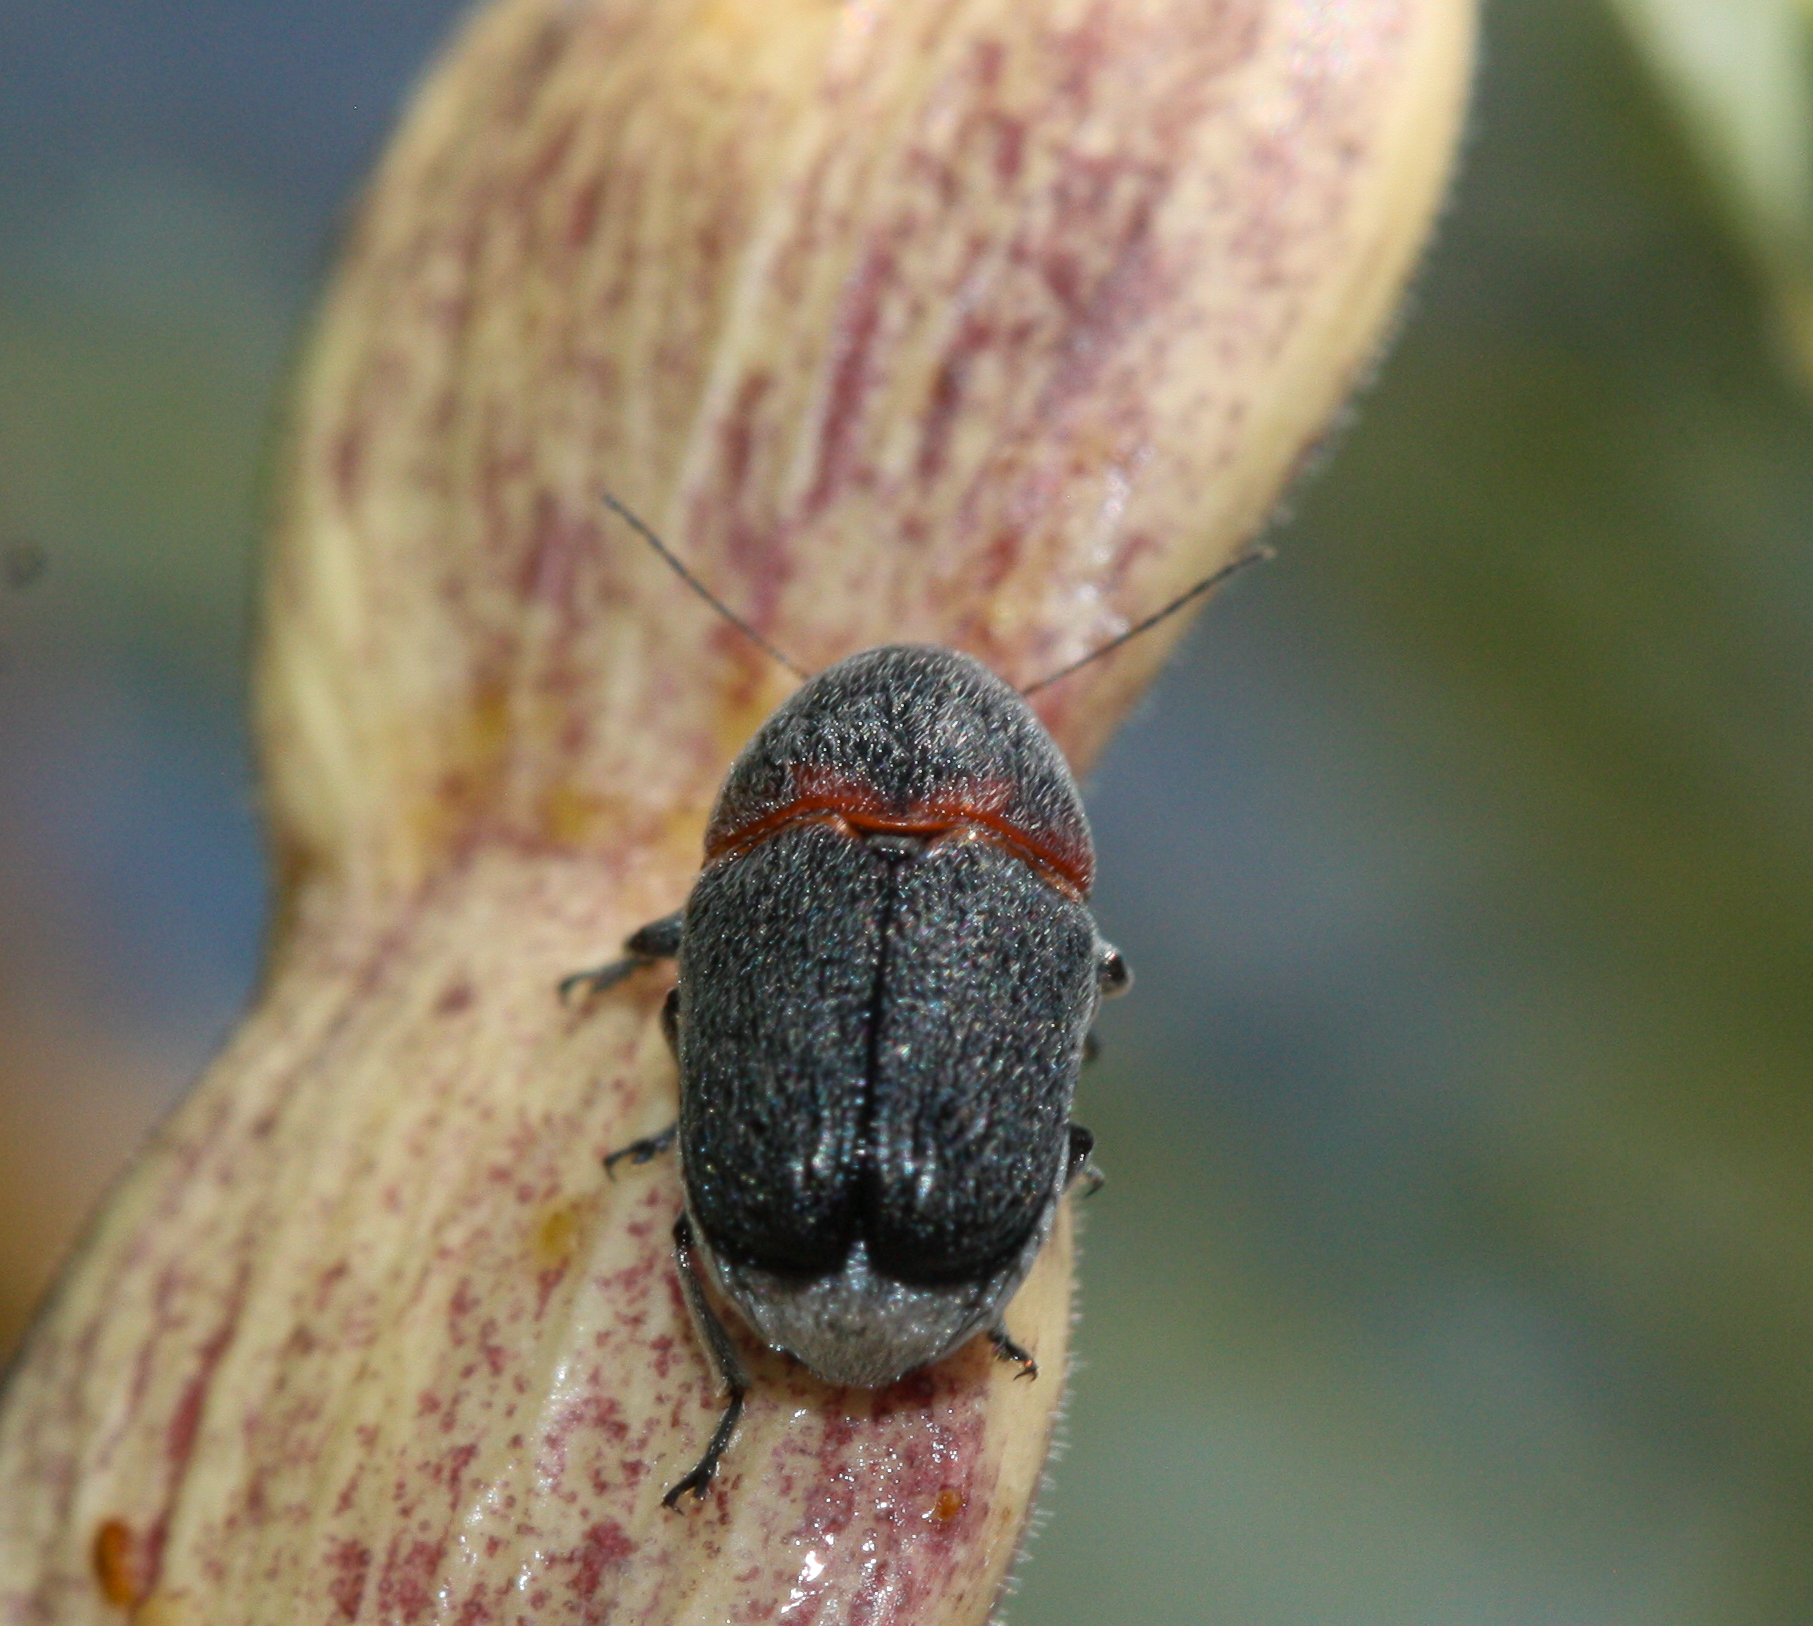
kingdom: Animalia
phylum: Arthropoda
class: Insecta
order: Coleoptera
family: Chrysomelidae
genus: Pachybrachis
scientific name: Pachybrachis thoracicus
